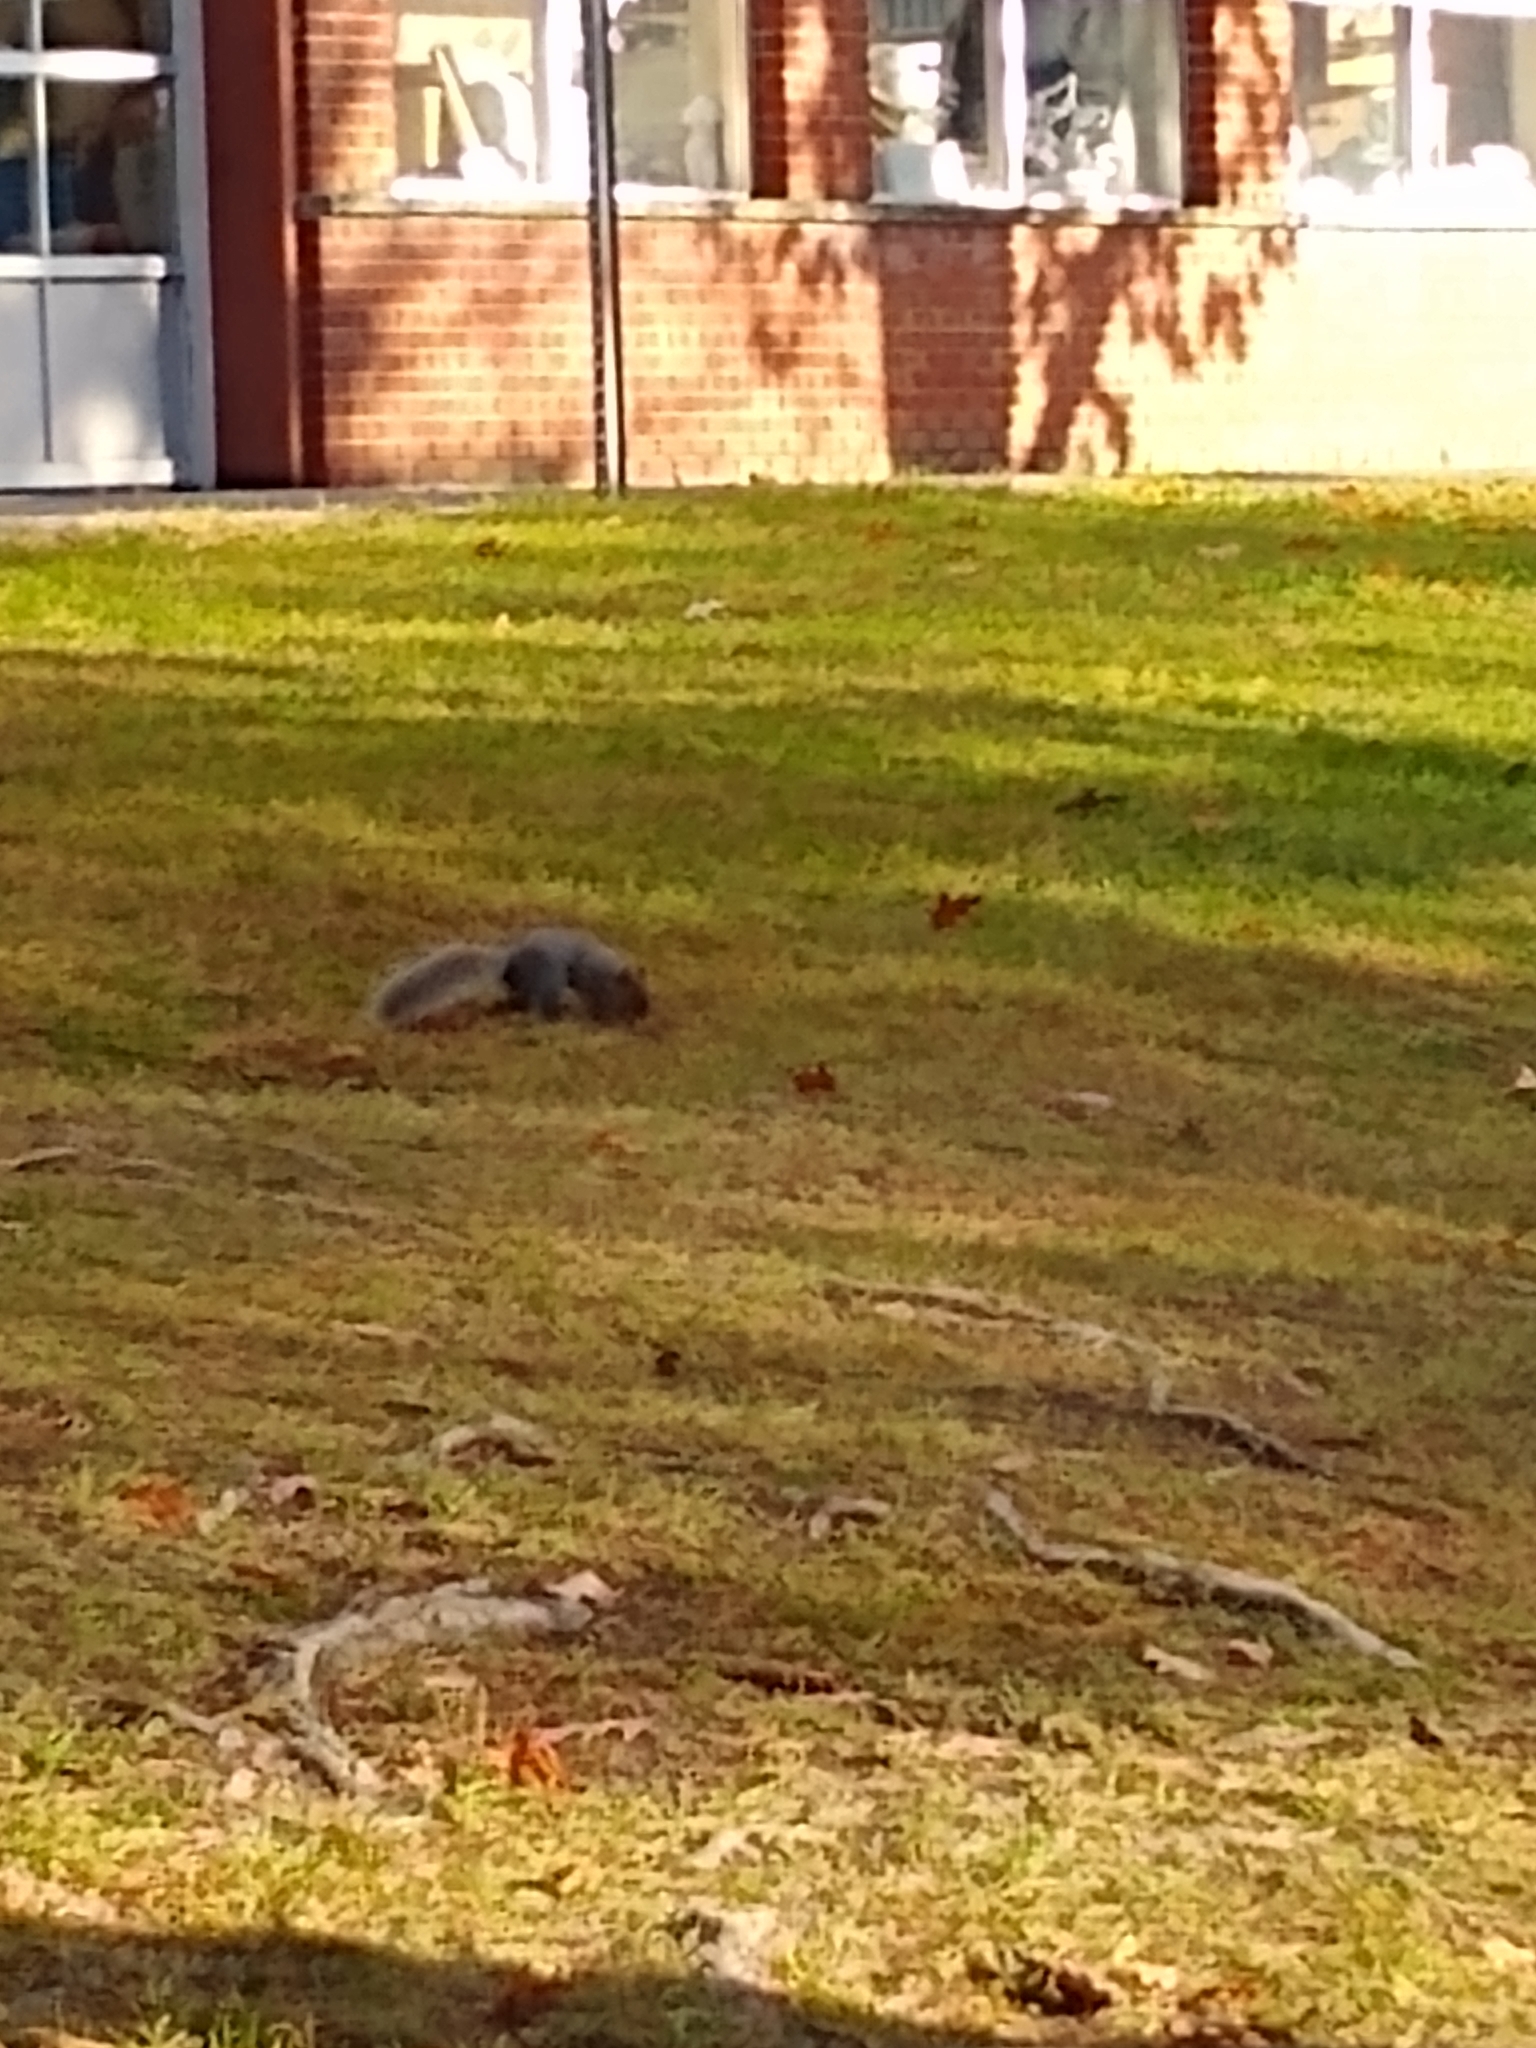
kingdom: Animalia
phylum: Chordata
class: Mammalia
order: Rodentia
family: Sciuridae
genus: Sciurus
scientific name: Sciurus carolinensis
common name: Eastern gray squirrel
